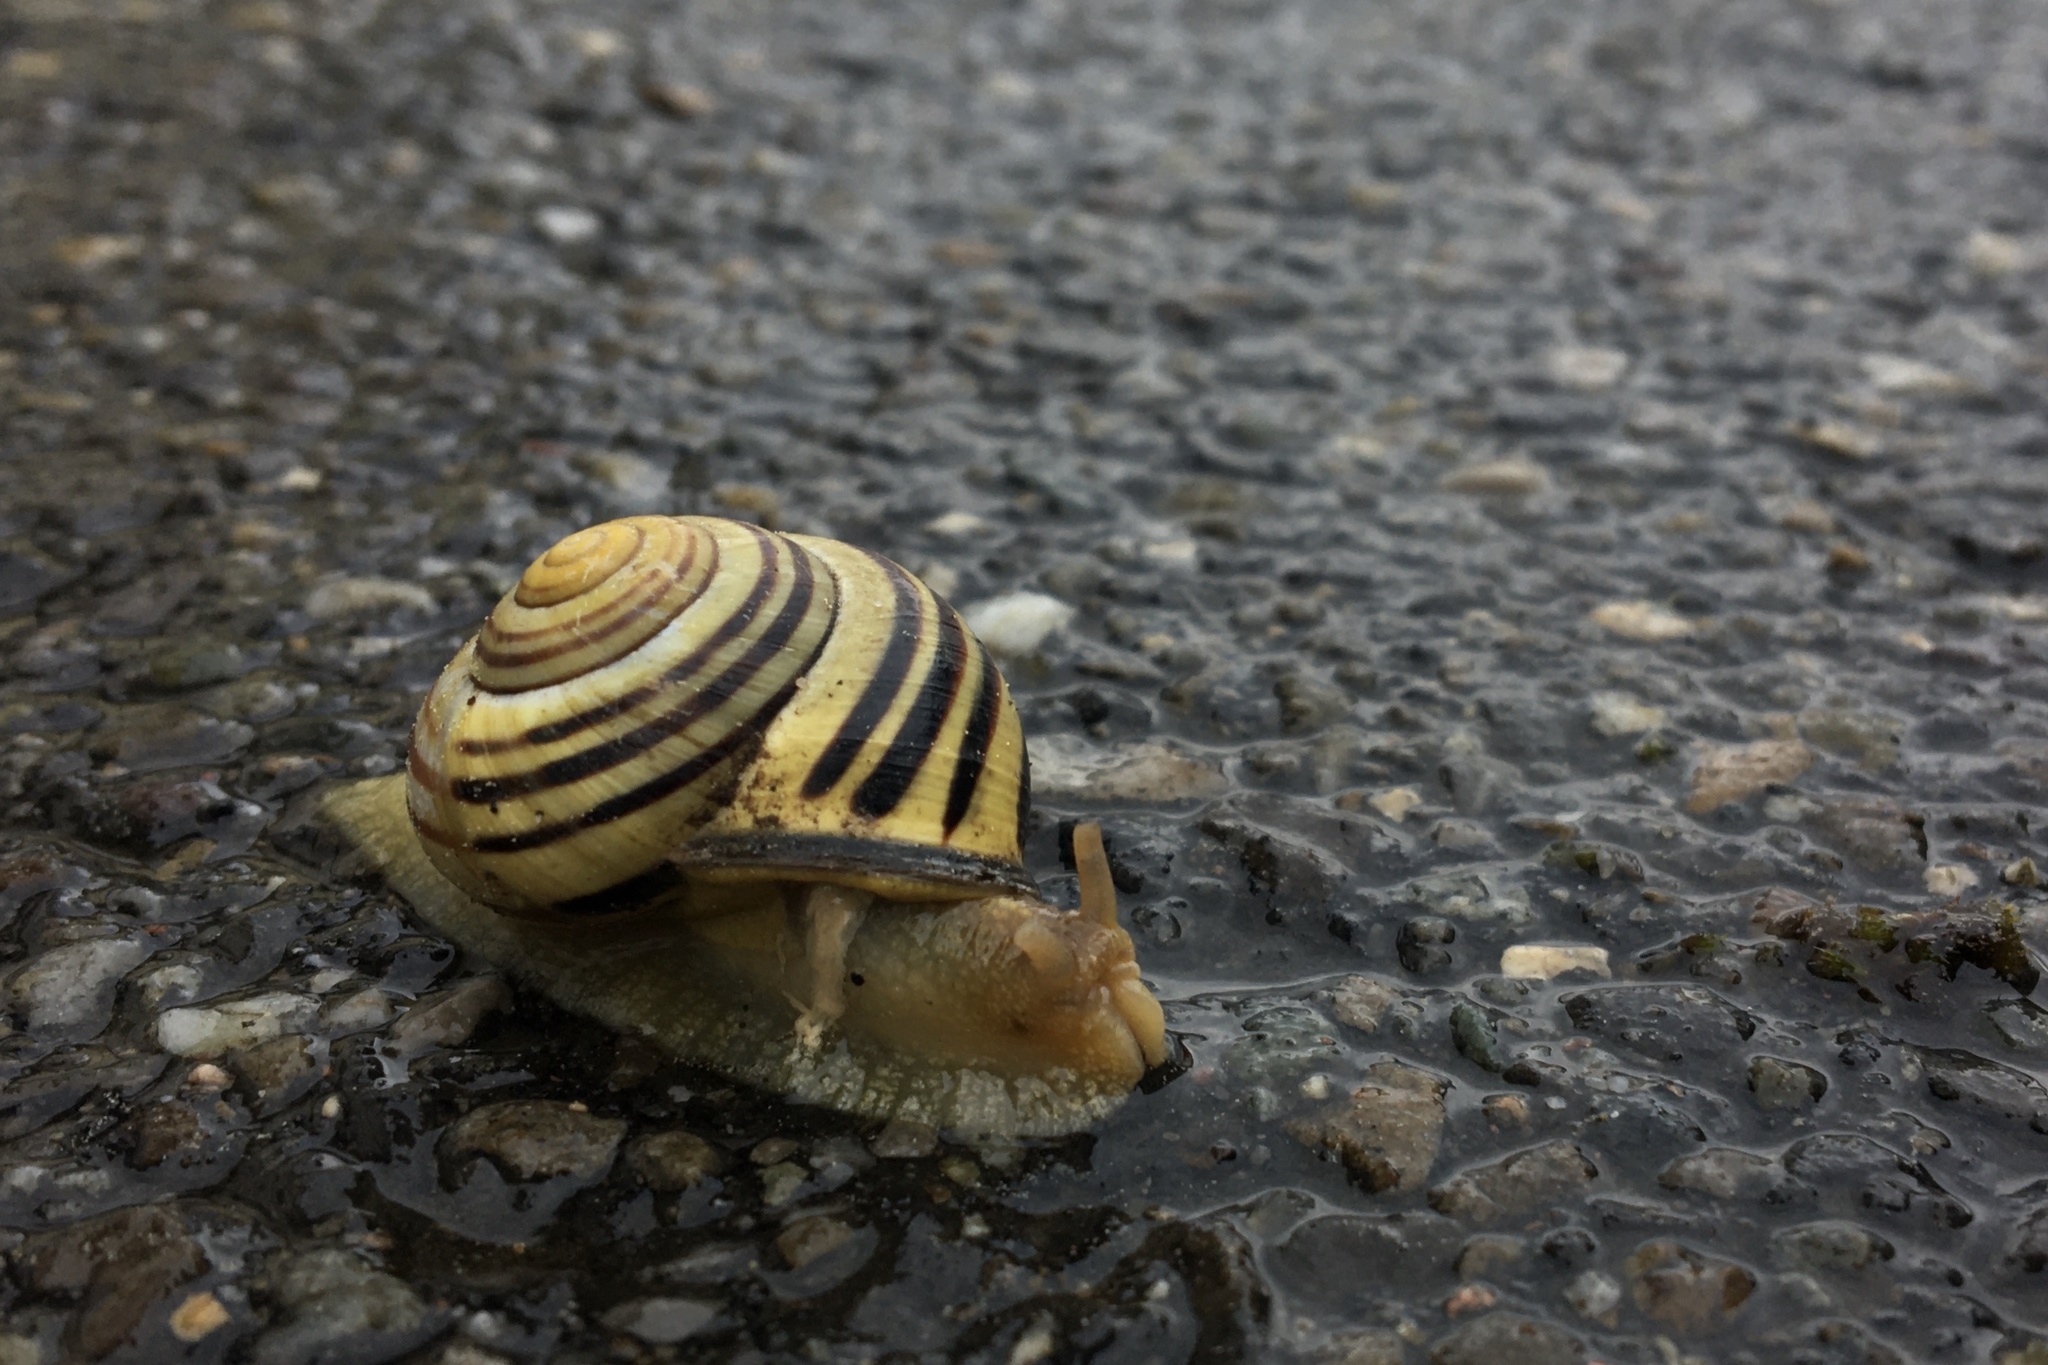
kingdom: Animalia
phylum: Mollusca
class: Gastropoda
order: Stylommatophora
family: Helicidae
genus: Cepaea
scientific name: Cepaea nemoralis
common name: Grovesnail
